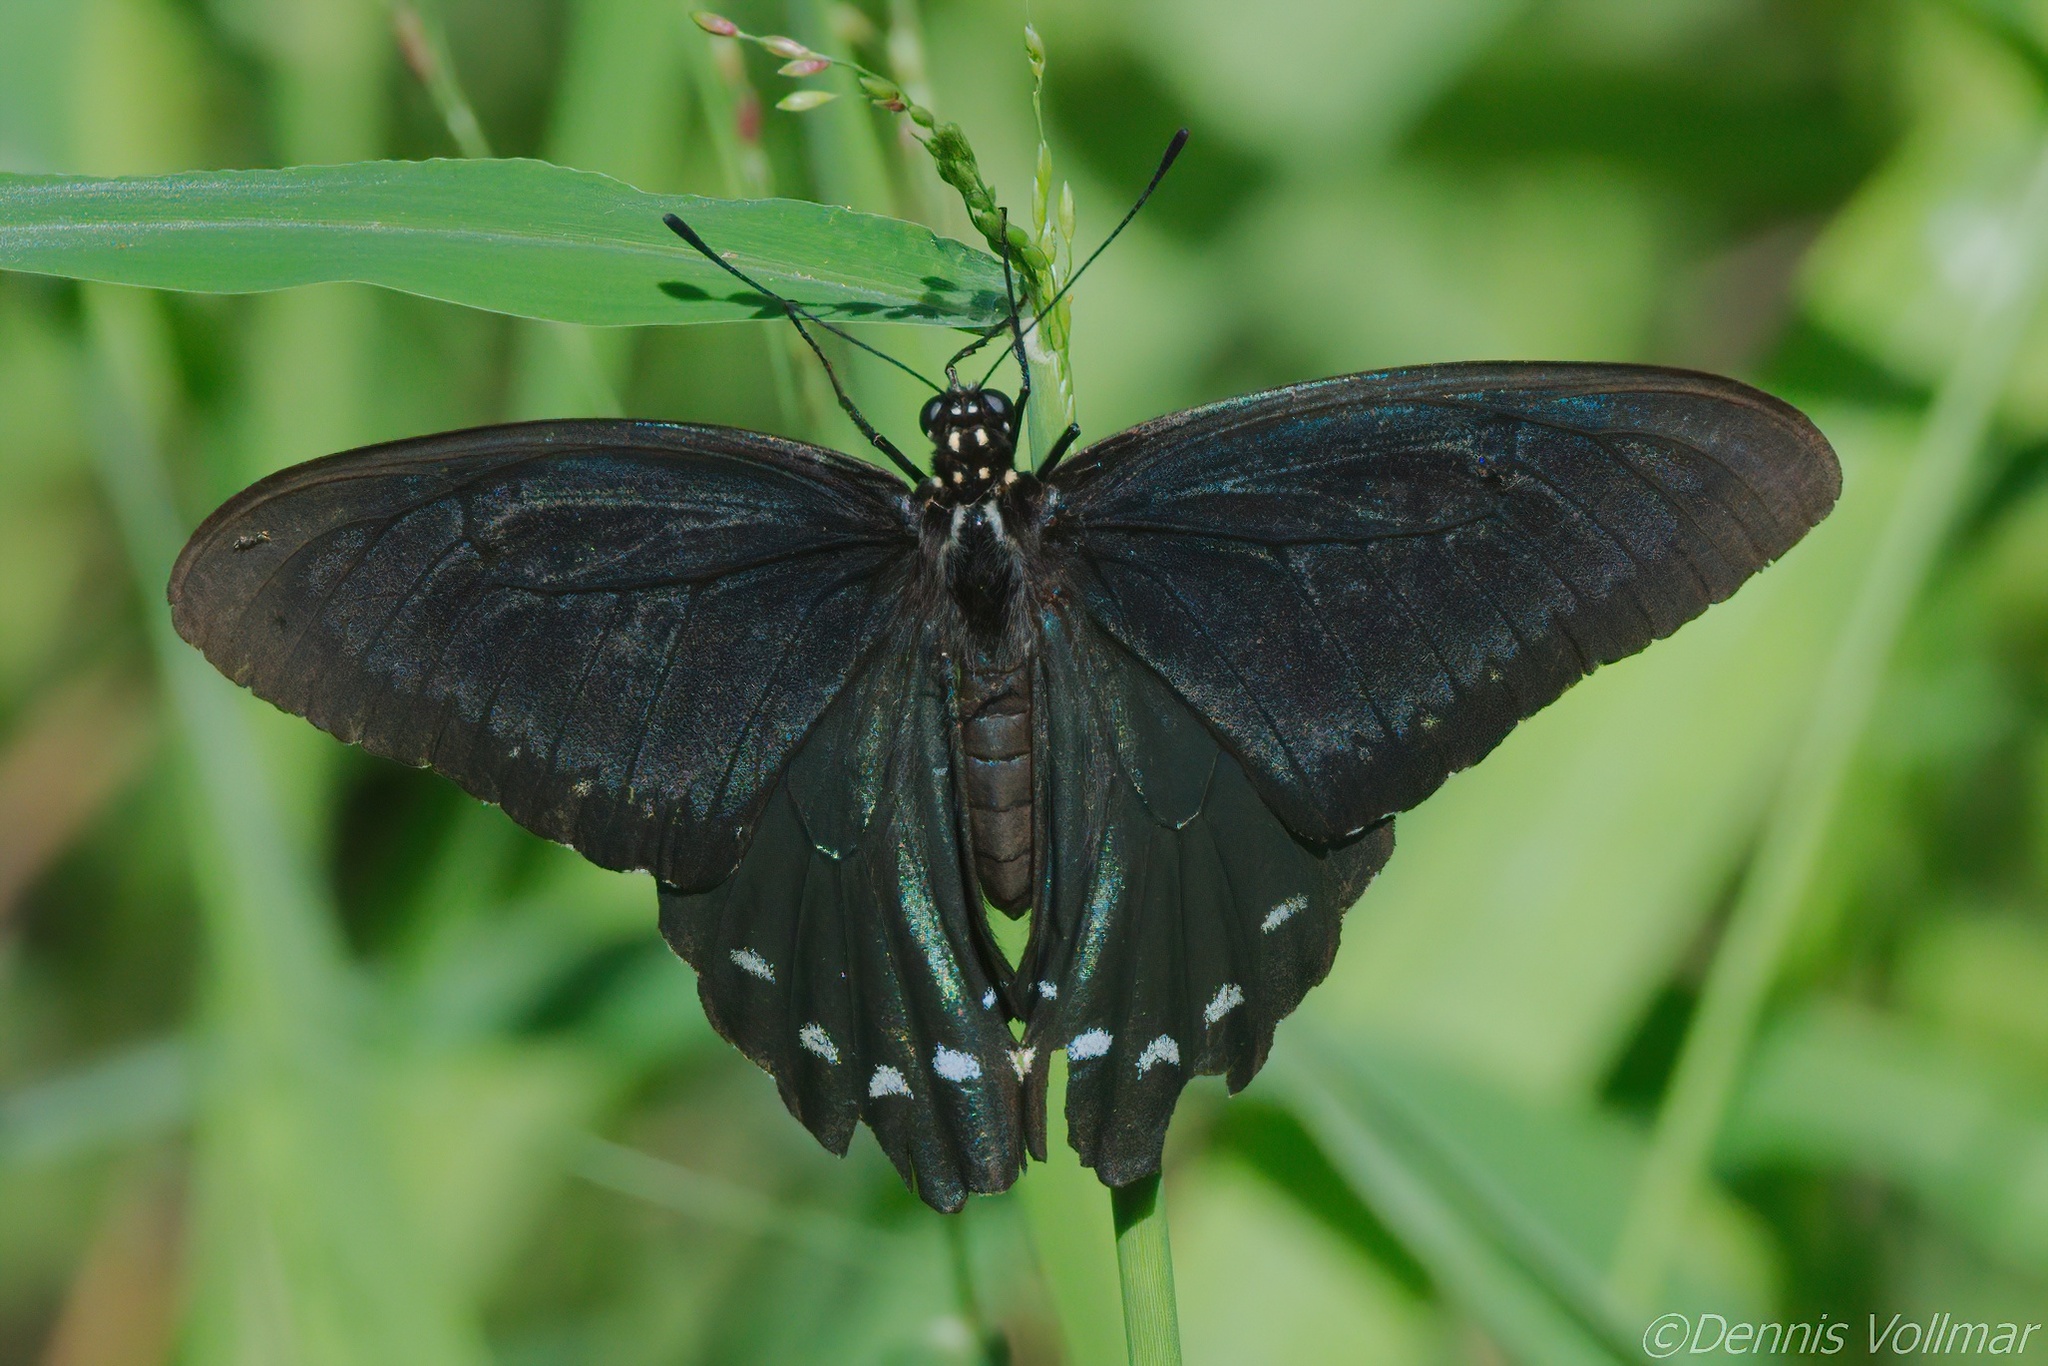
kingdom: Animalia
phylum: Arthropoda
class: Insecta
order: Lepidoptera
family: Papilionidae
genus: Battus
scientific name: Battus philenor
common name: Pipevine swallowtail
